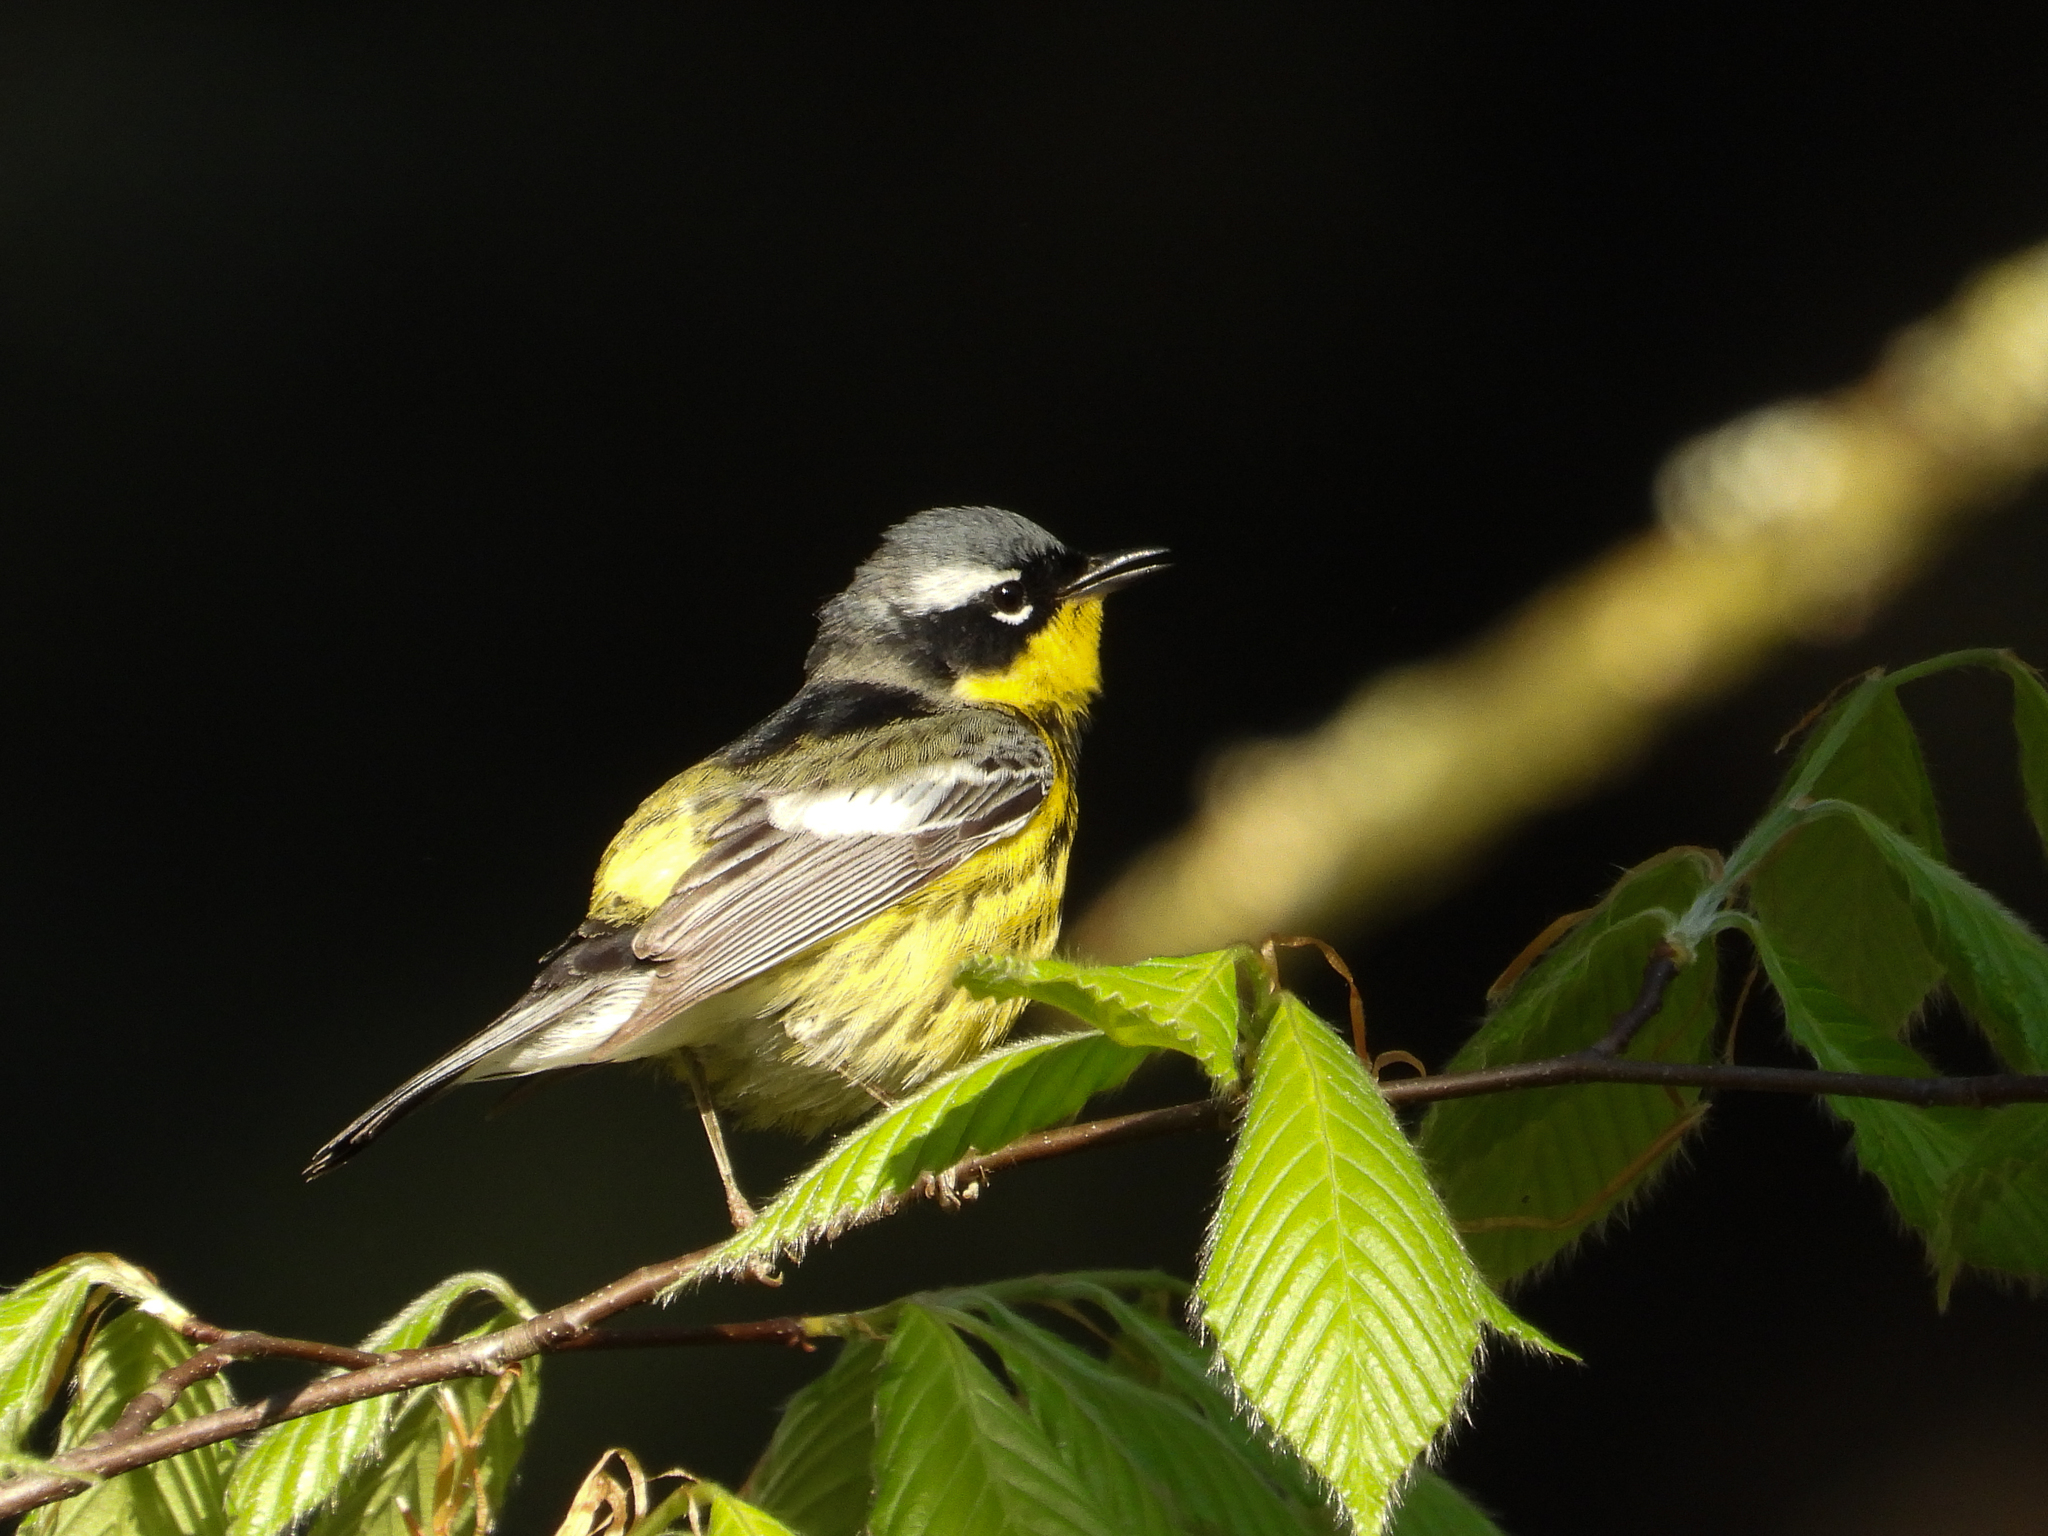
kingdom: Animalia
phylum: Chordata
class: Aves
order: Passeriformes
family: Parulidae
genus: Setophaga
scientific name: Setophaga magnolia
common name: Magnolia warbler
